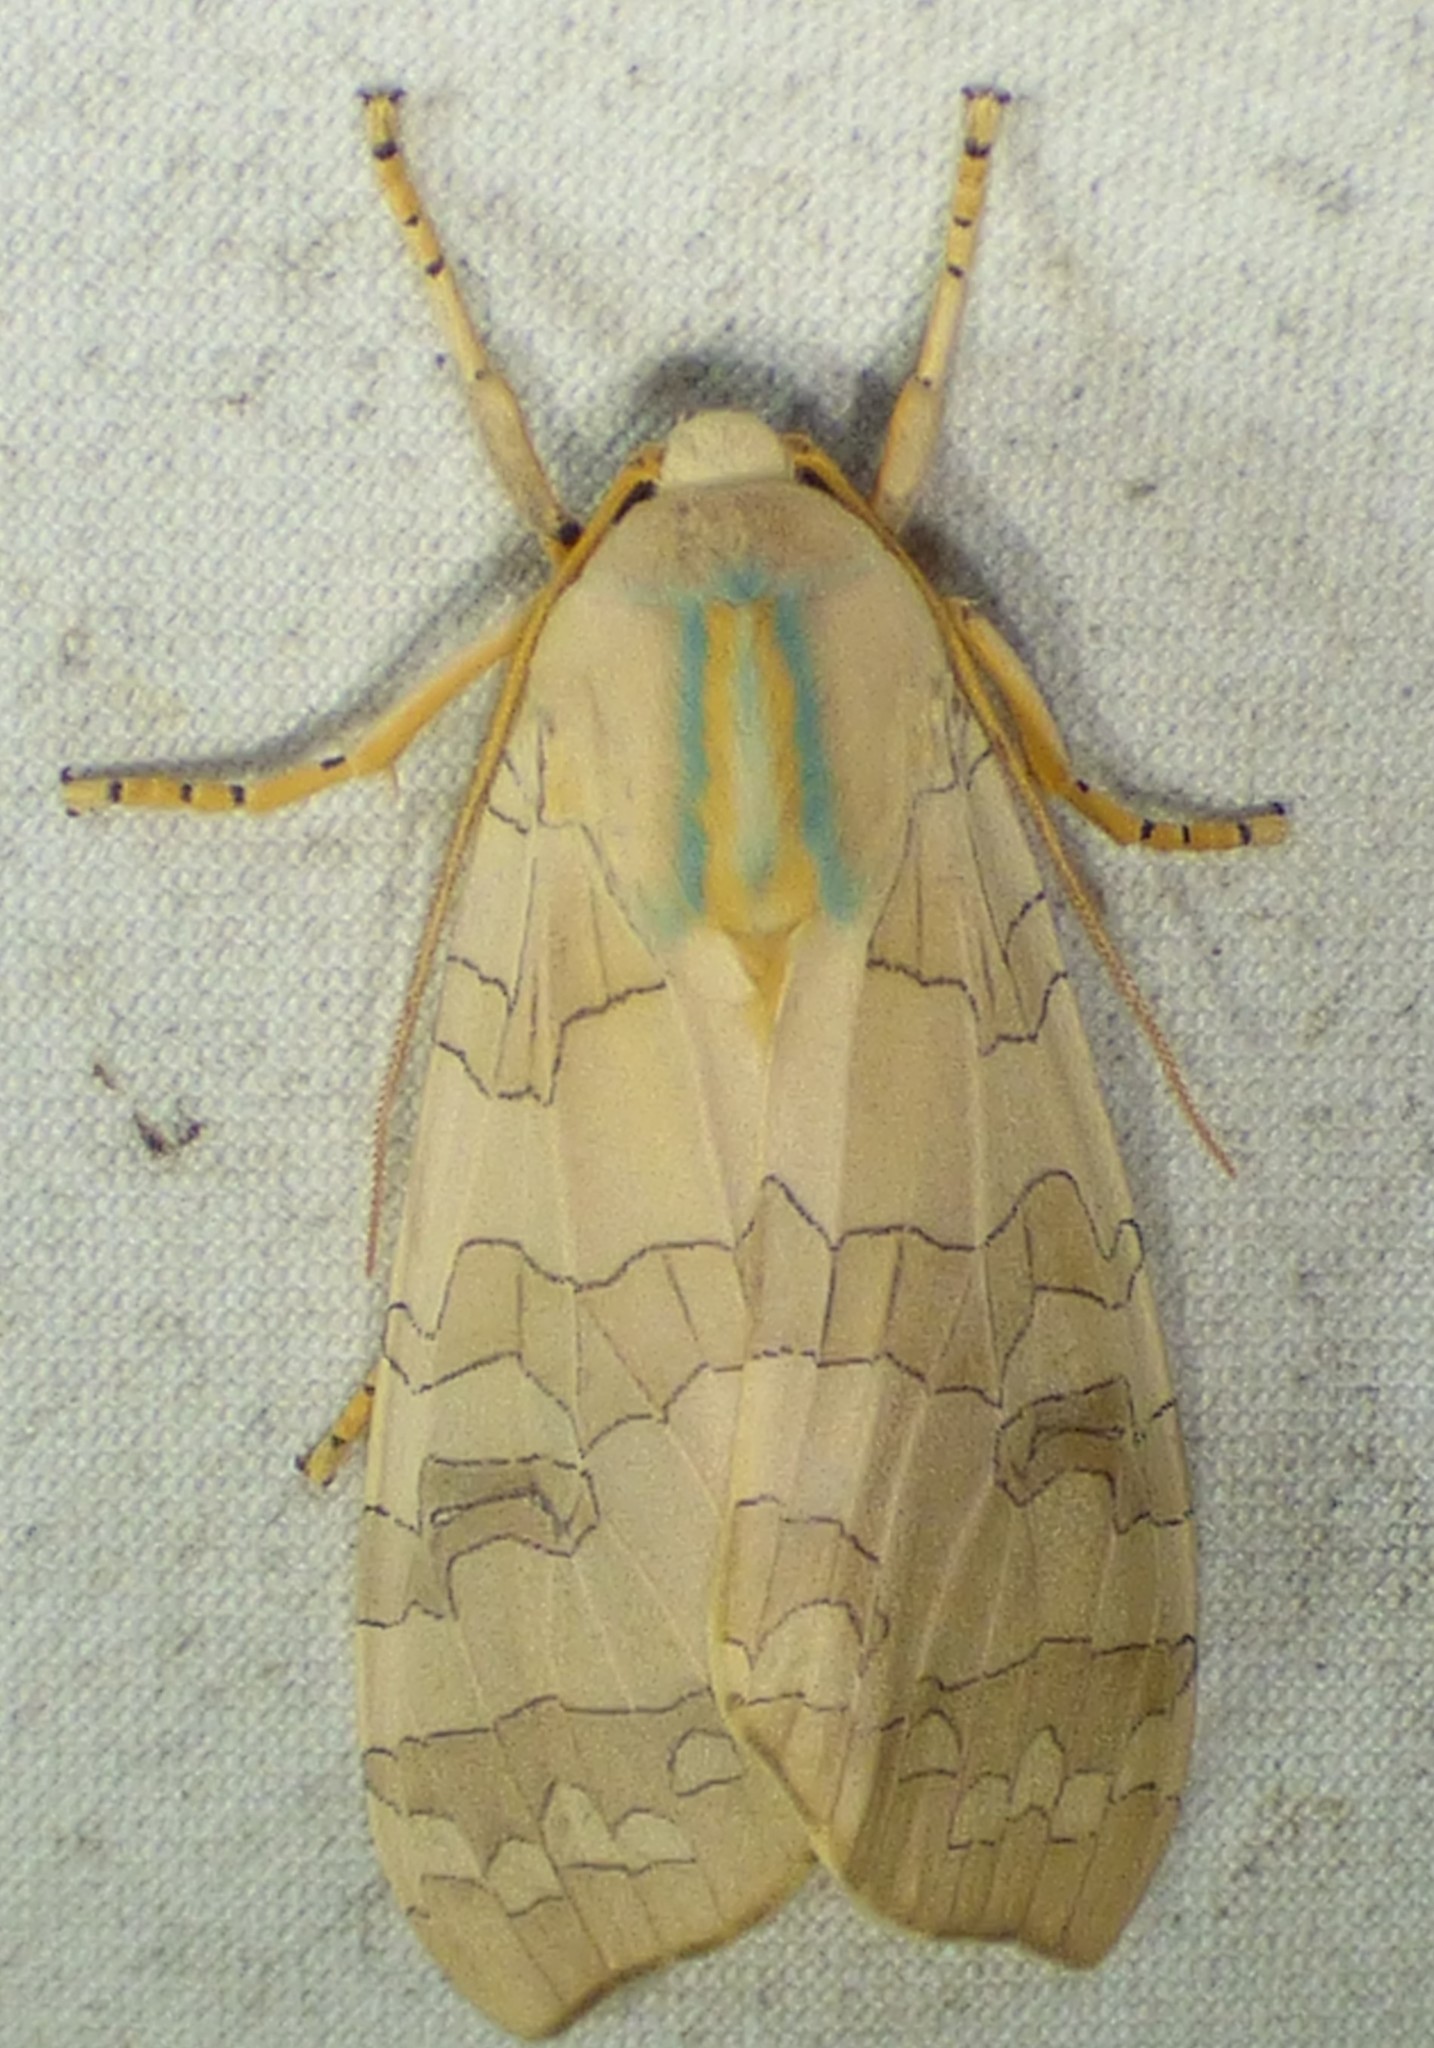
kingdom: Animalia
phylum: Arthropoda
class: Insecta
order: Lepidoptera
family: Erebidae
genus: Halysidota
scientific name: Halysidota
